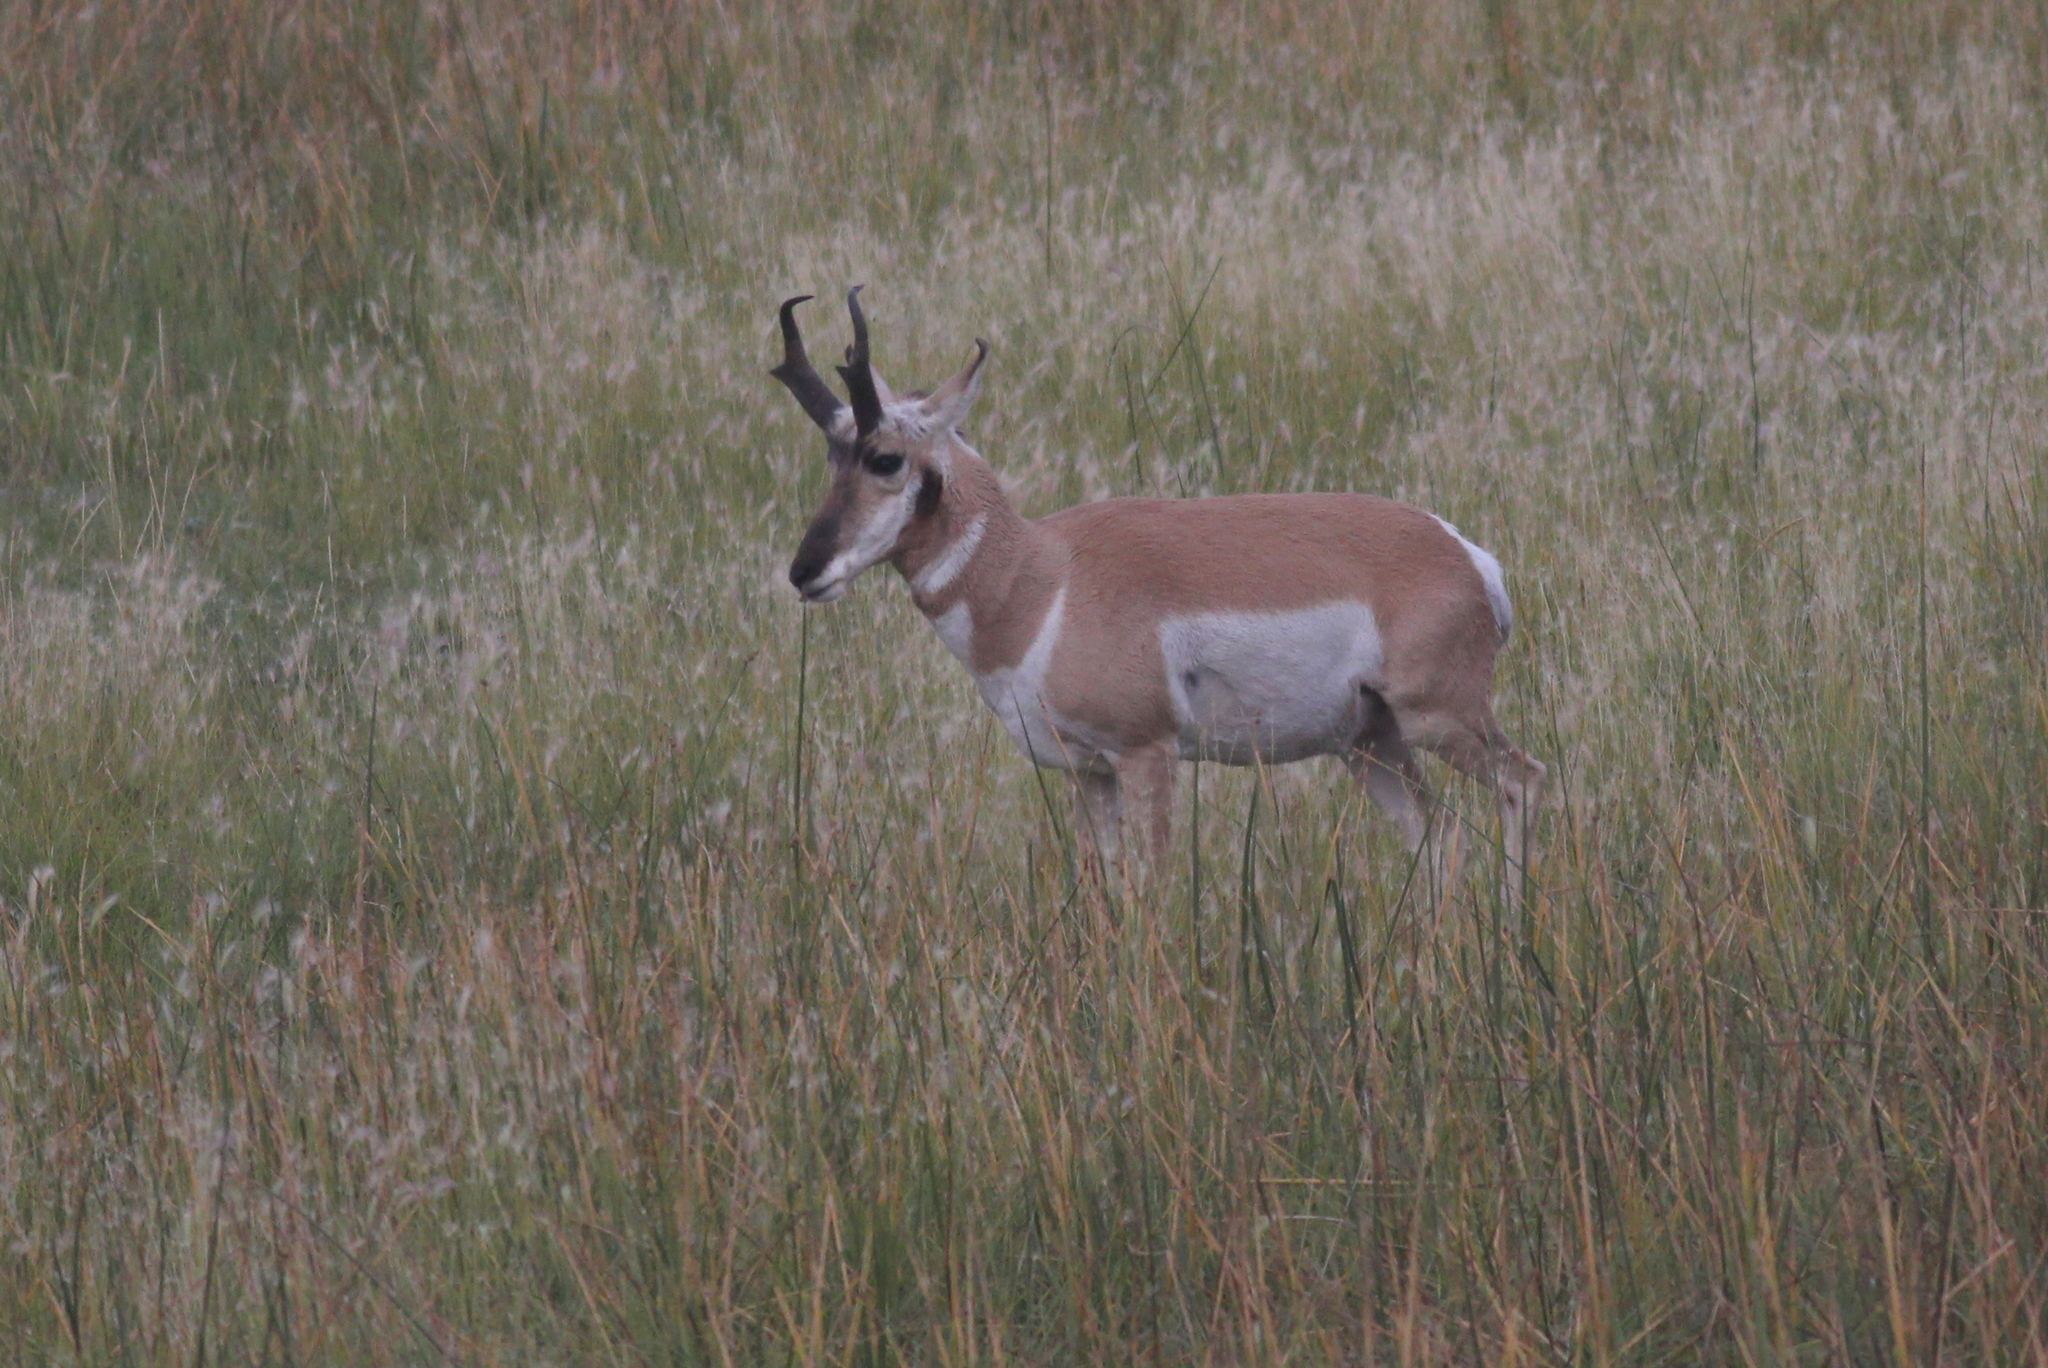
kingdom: Animalia
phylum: Chordata
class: Mammalia
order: Artiodactyla
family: Antilocapridae
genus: Antilocapra
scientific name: Antilocapra americana
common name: Pronghorn
